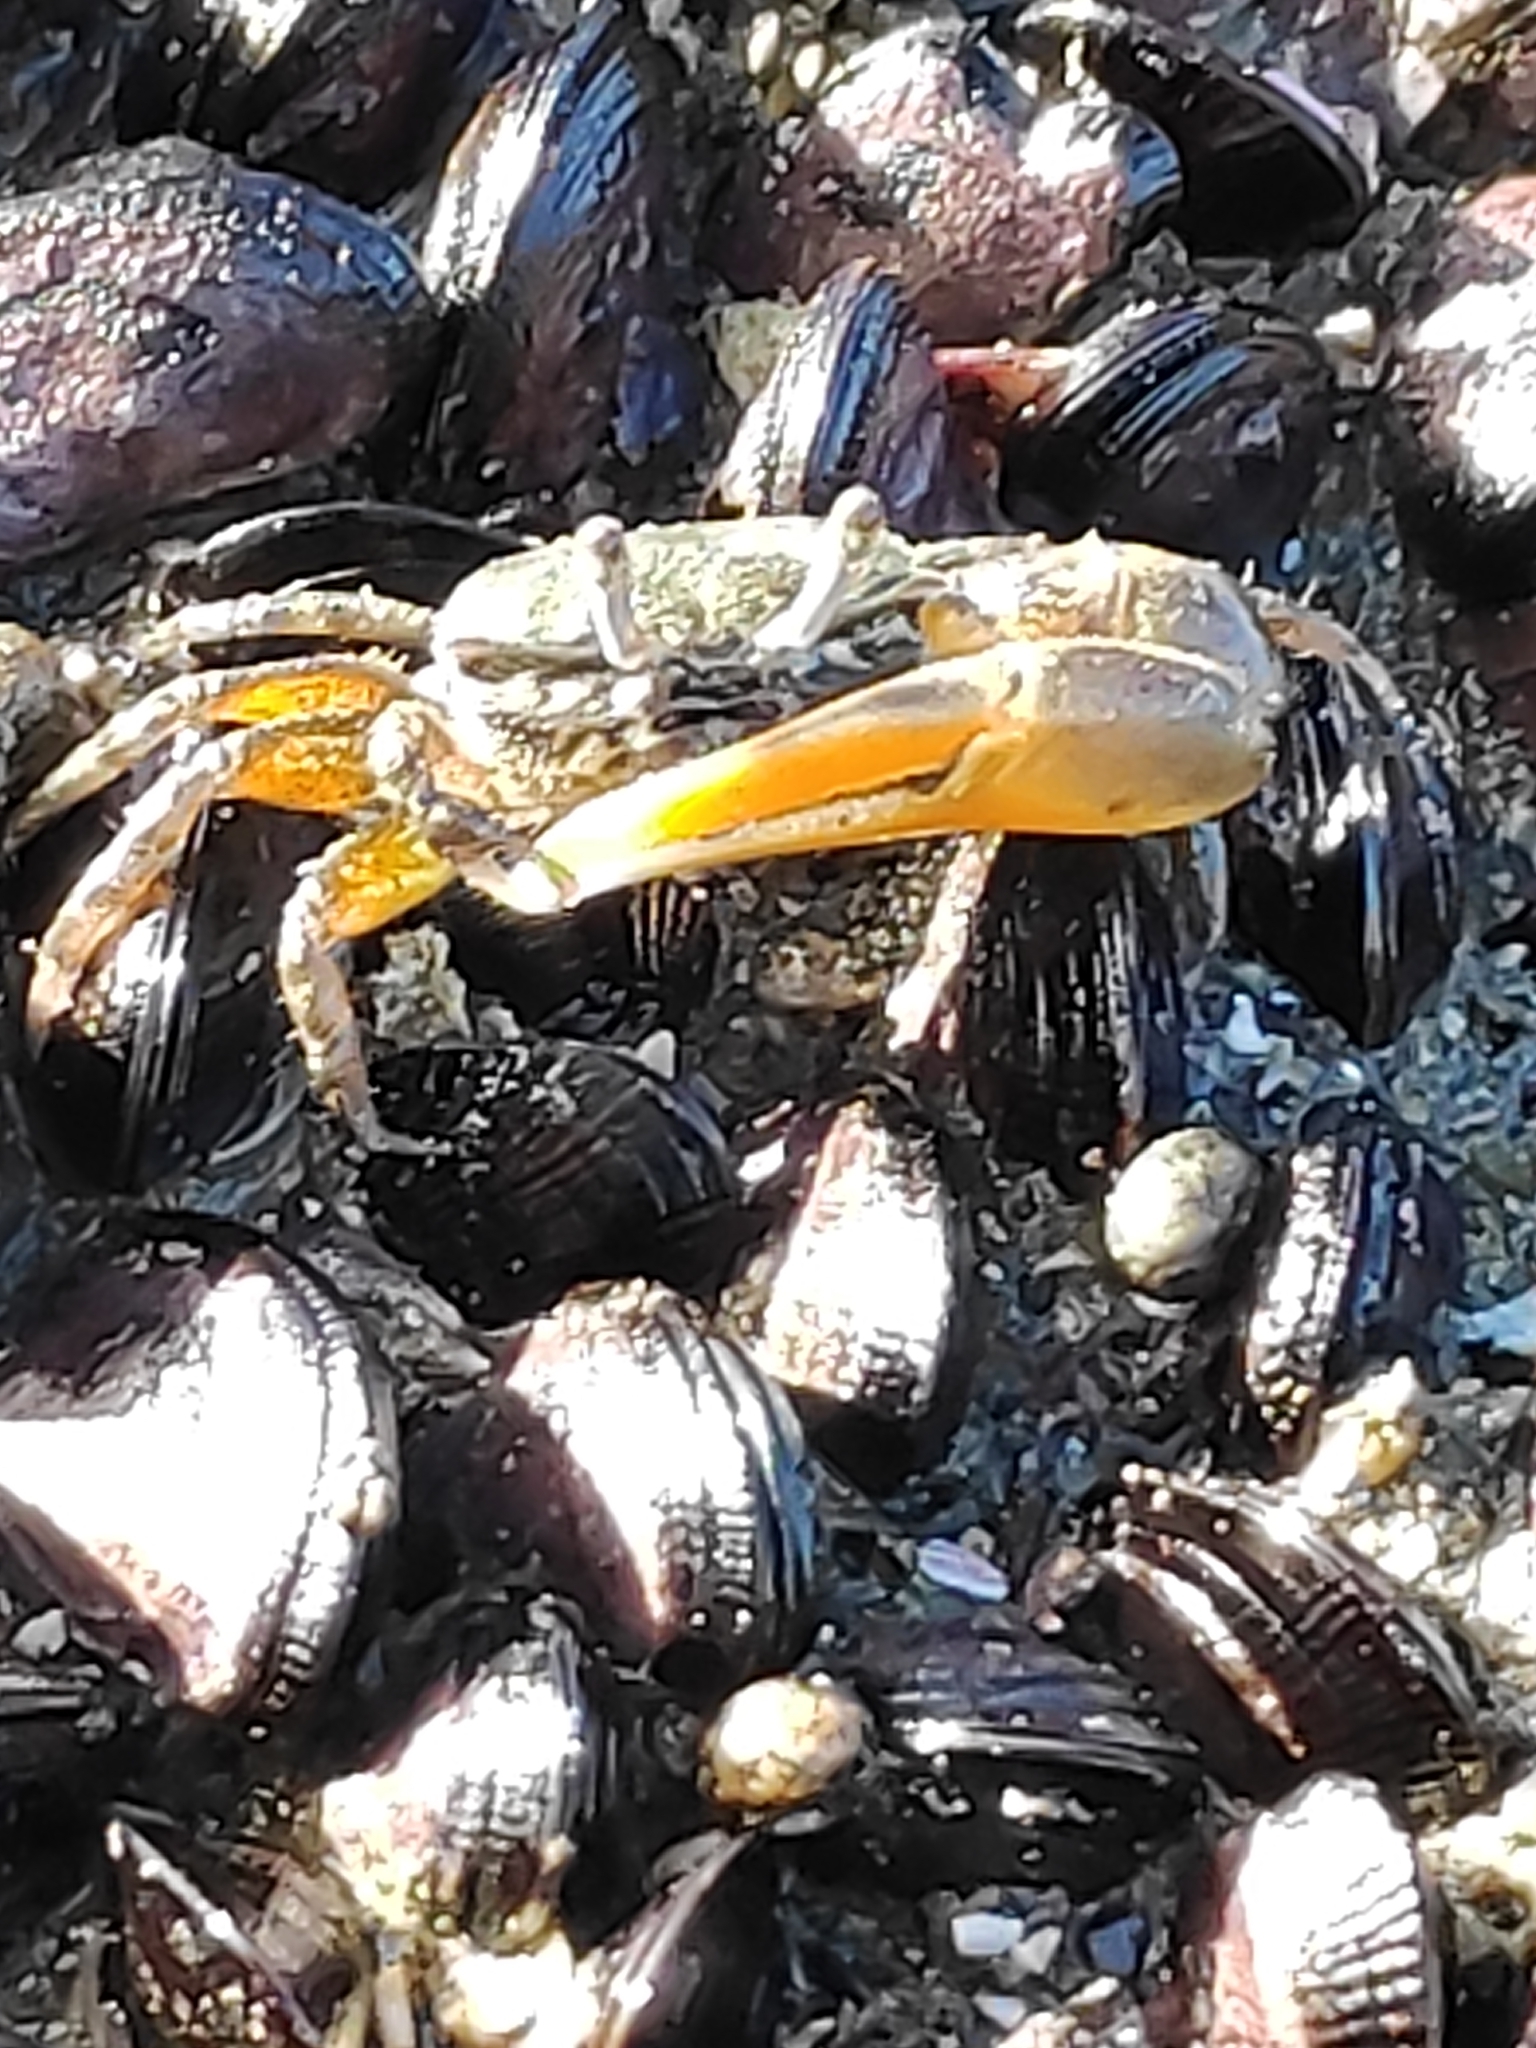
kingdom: Animalia
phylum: Arthropoda
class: Malacostraca
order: Decapoda
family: Ocypodidae
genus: Austruca
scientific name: Austruca citrus
